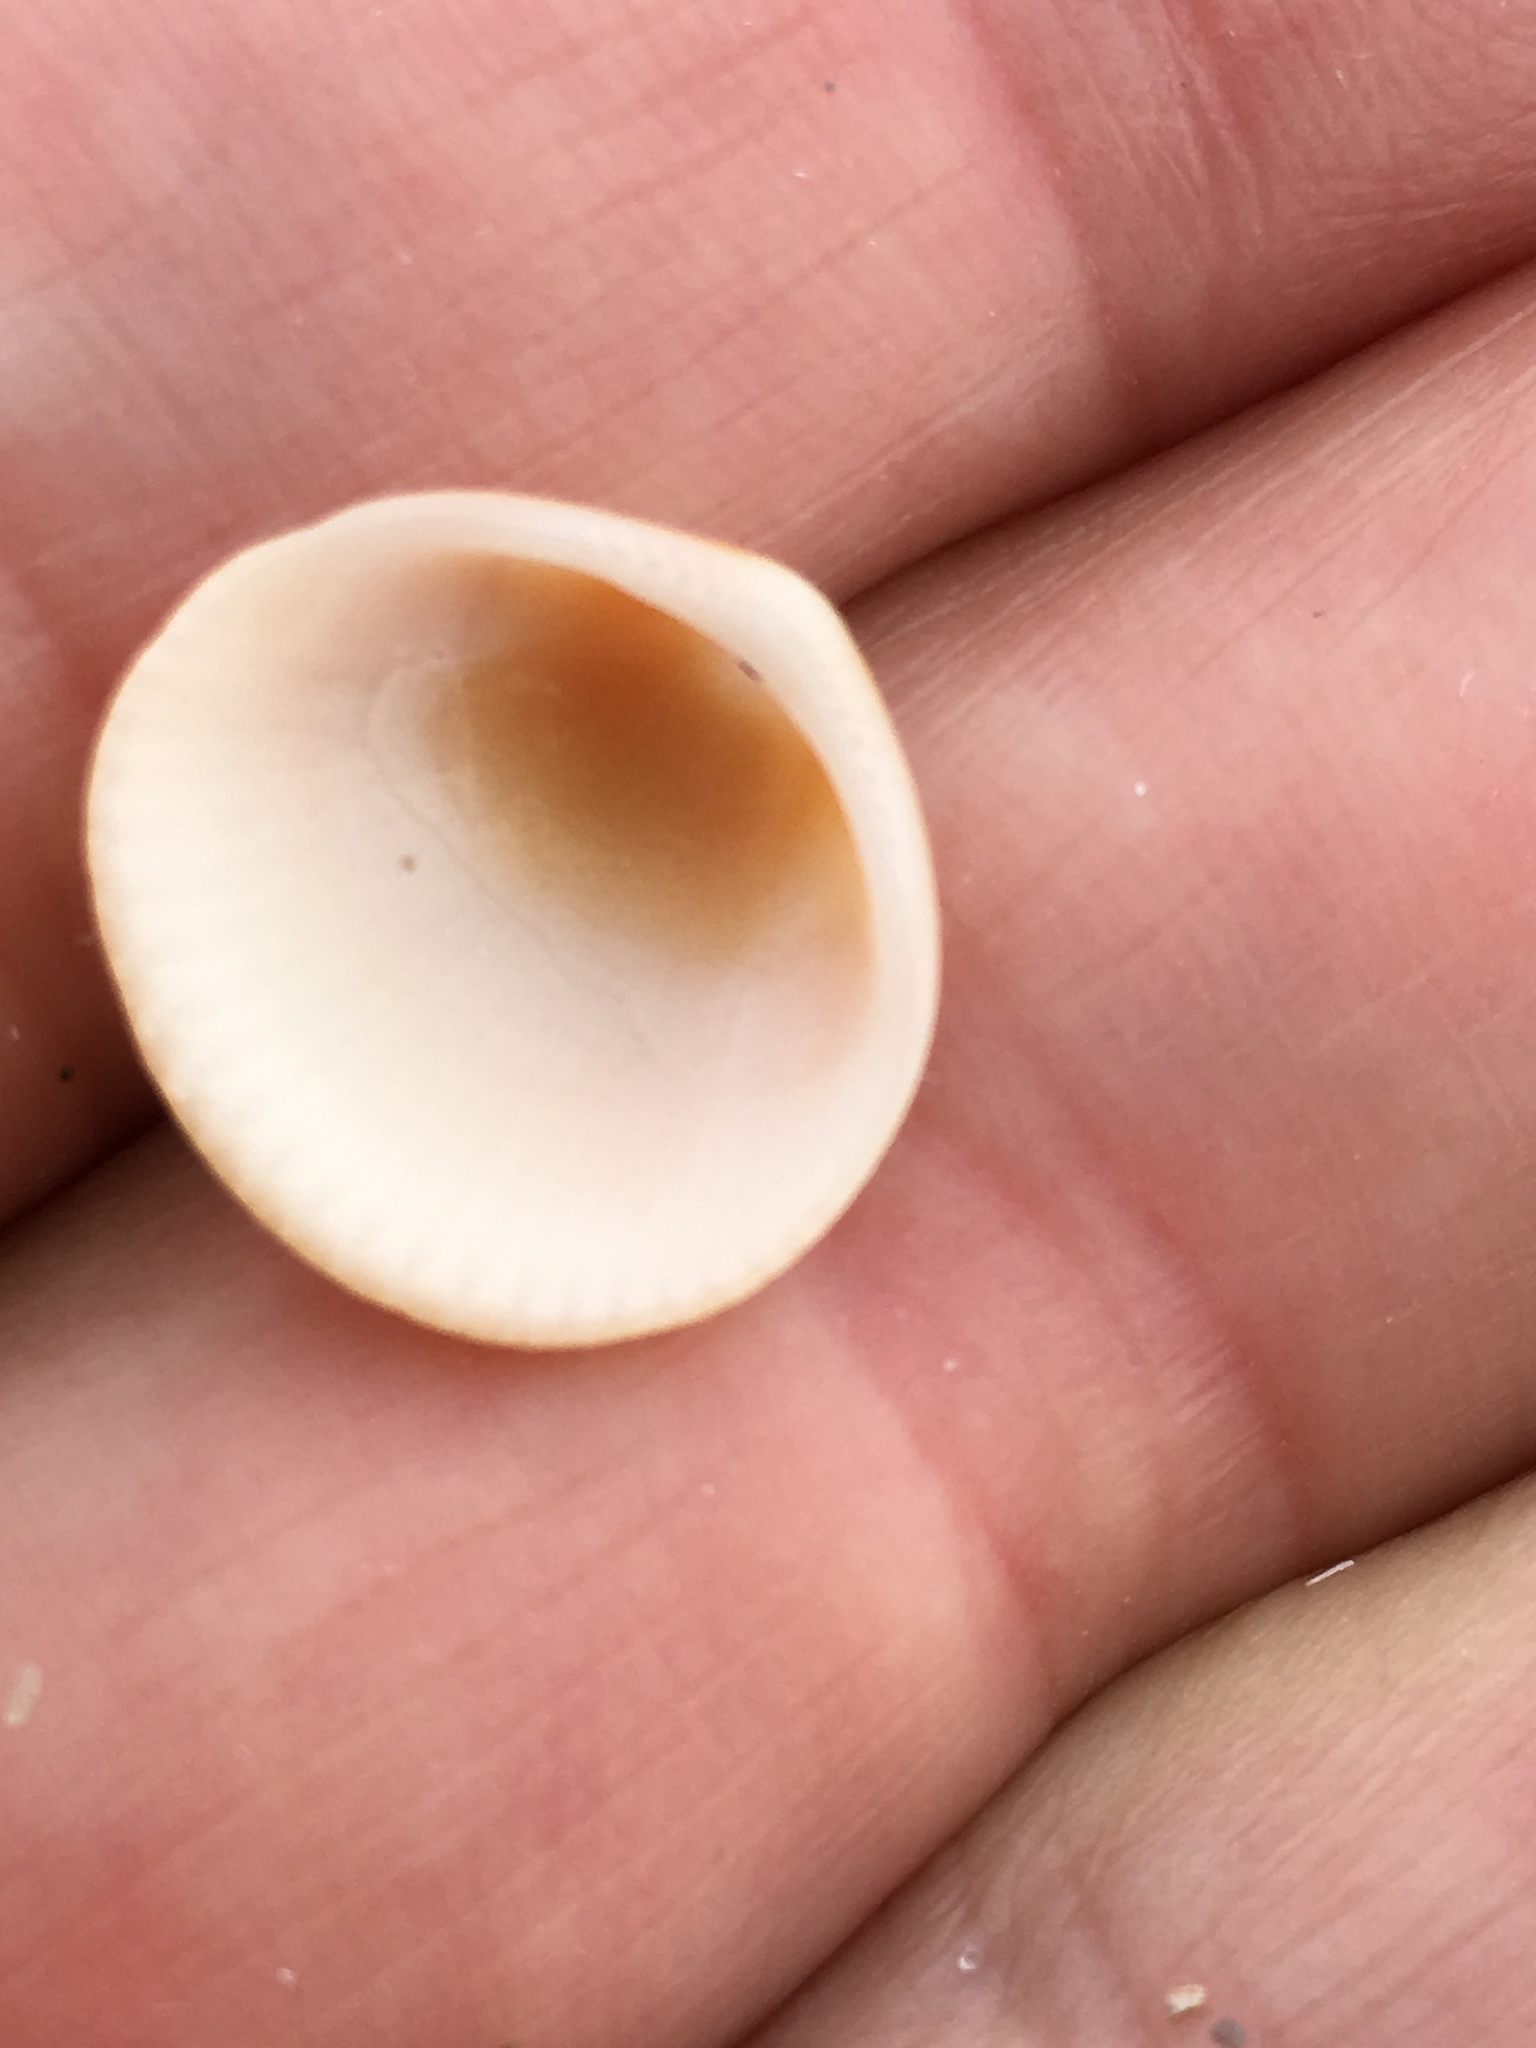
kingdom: Animalia
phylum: Mollusca
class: Bivalvia
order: Arcida
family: Glycymerididae
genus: Glycymeris
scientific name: Glycymeris spectralis
